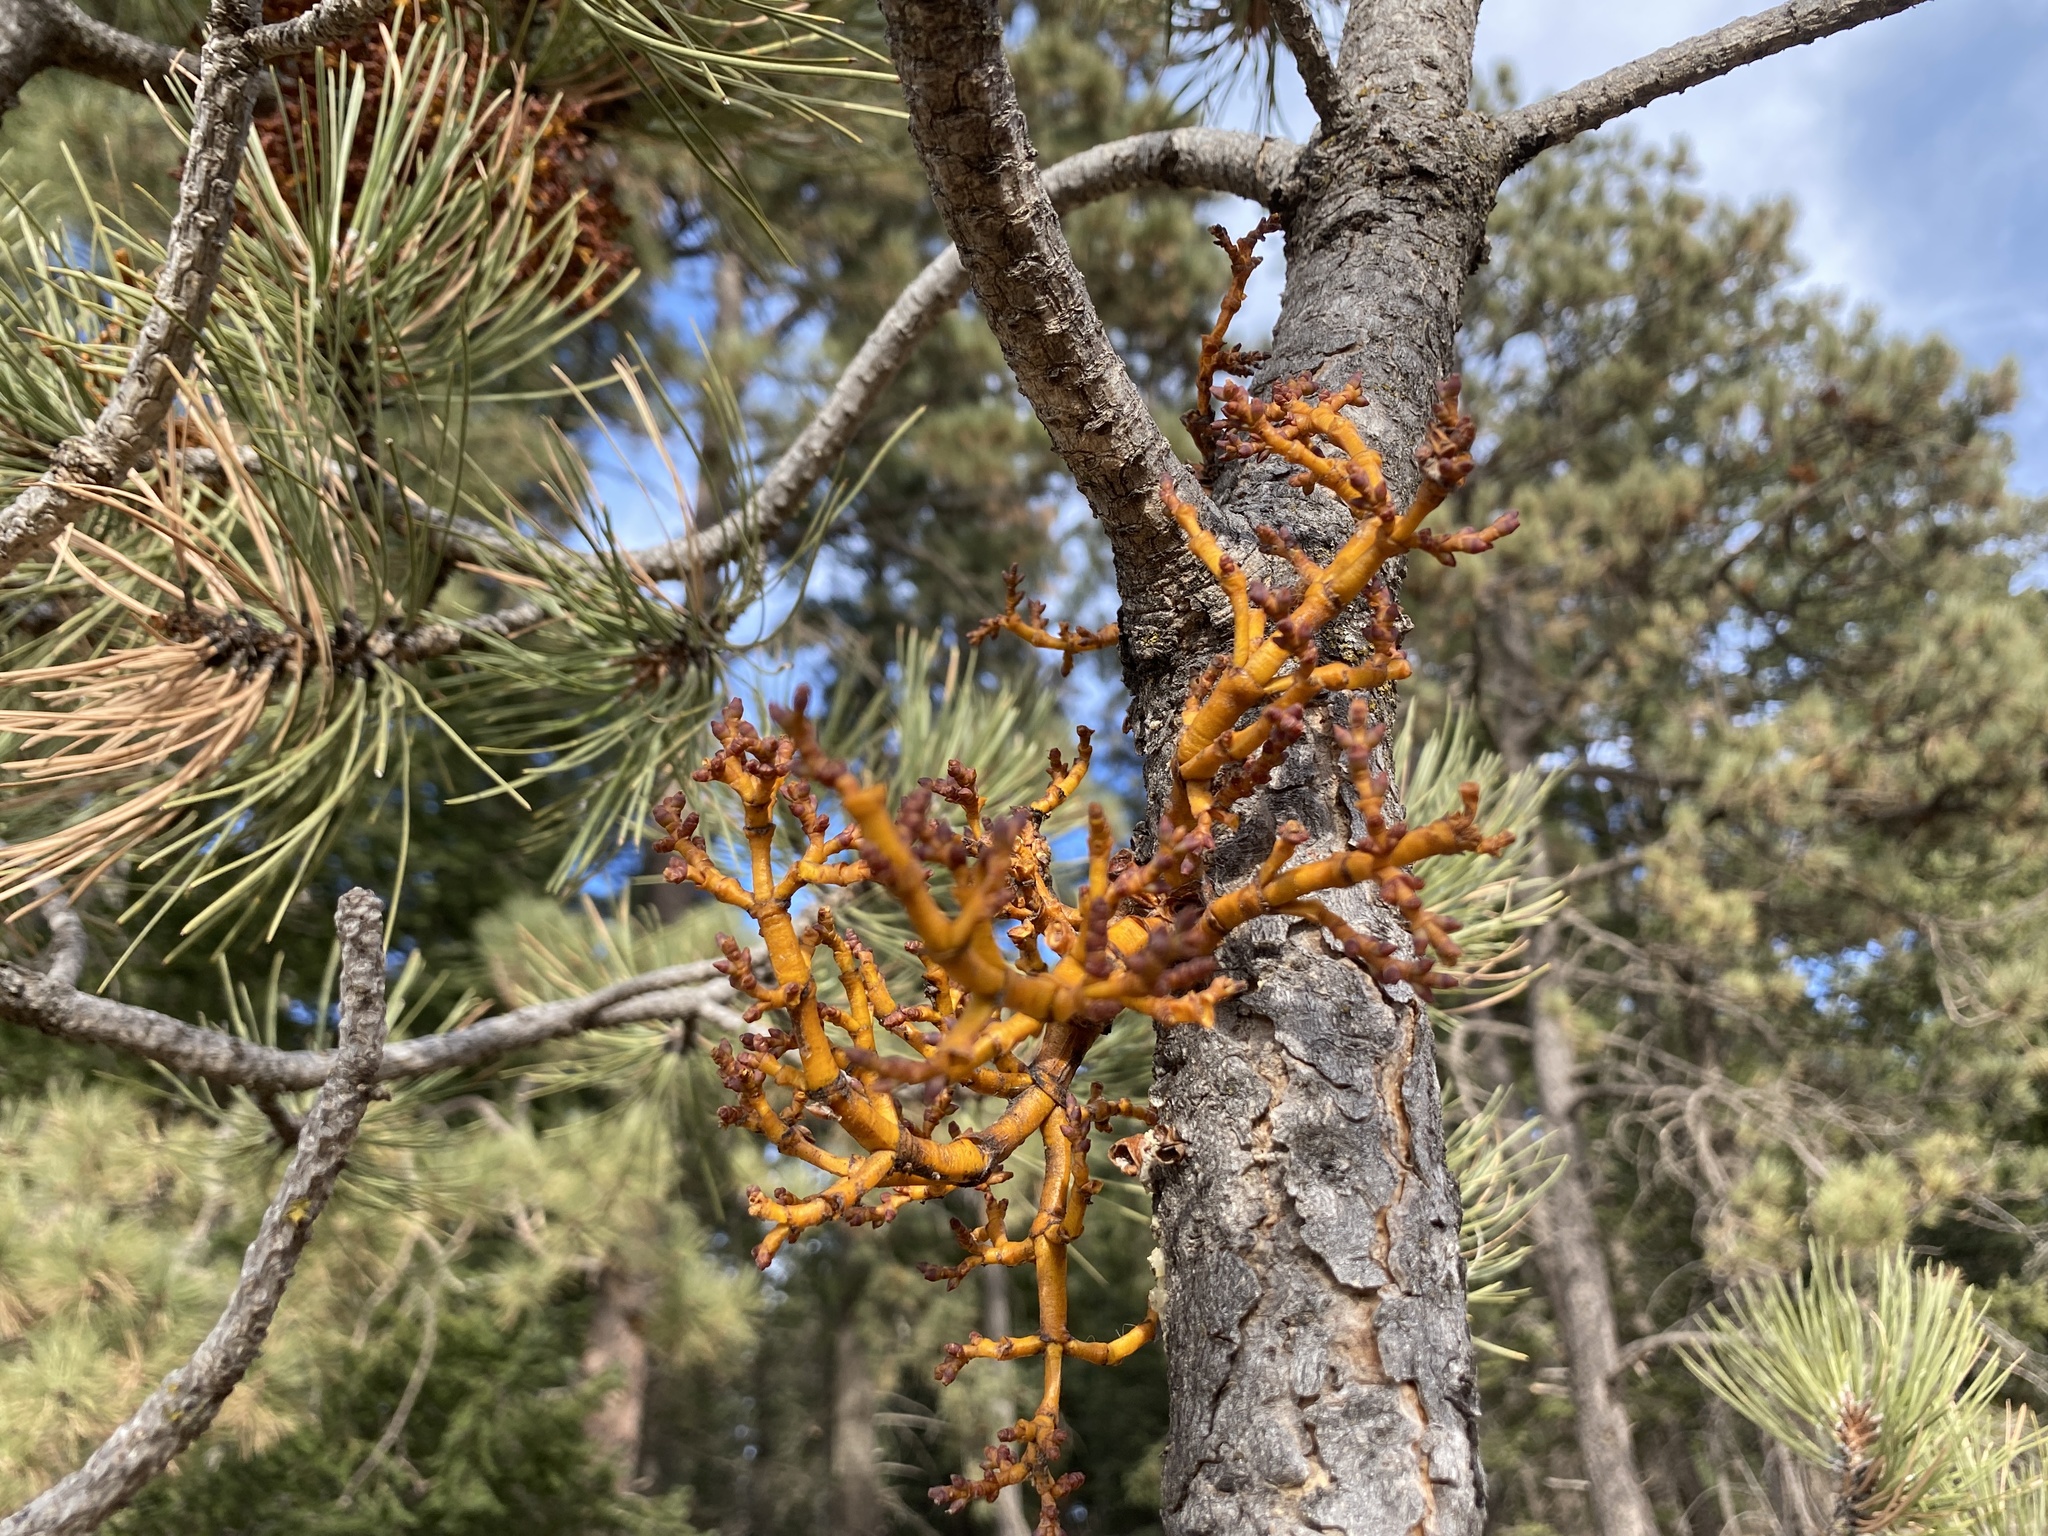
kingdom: Plantae
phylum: Tracheophyta
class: Magnoliopsida
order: Santalales
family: Viscaceae
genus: Arceuthobium
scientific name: Arceuthobium vaginatum
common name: Southwestern dwarf-mistletoe
